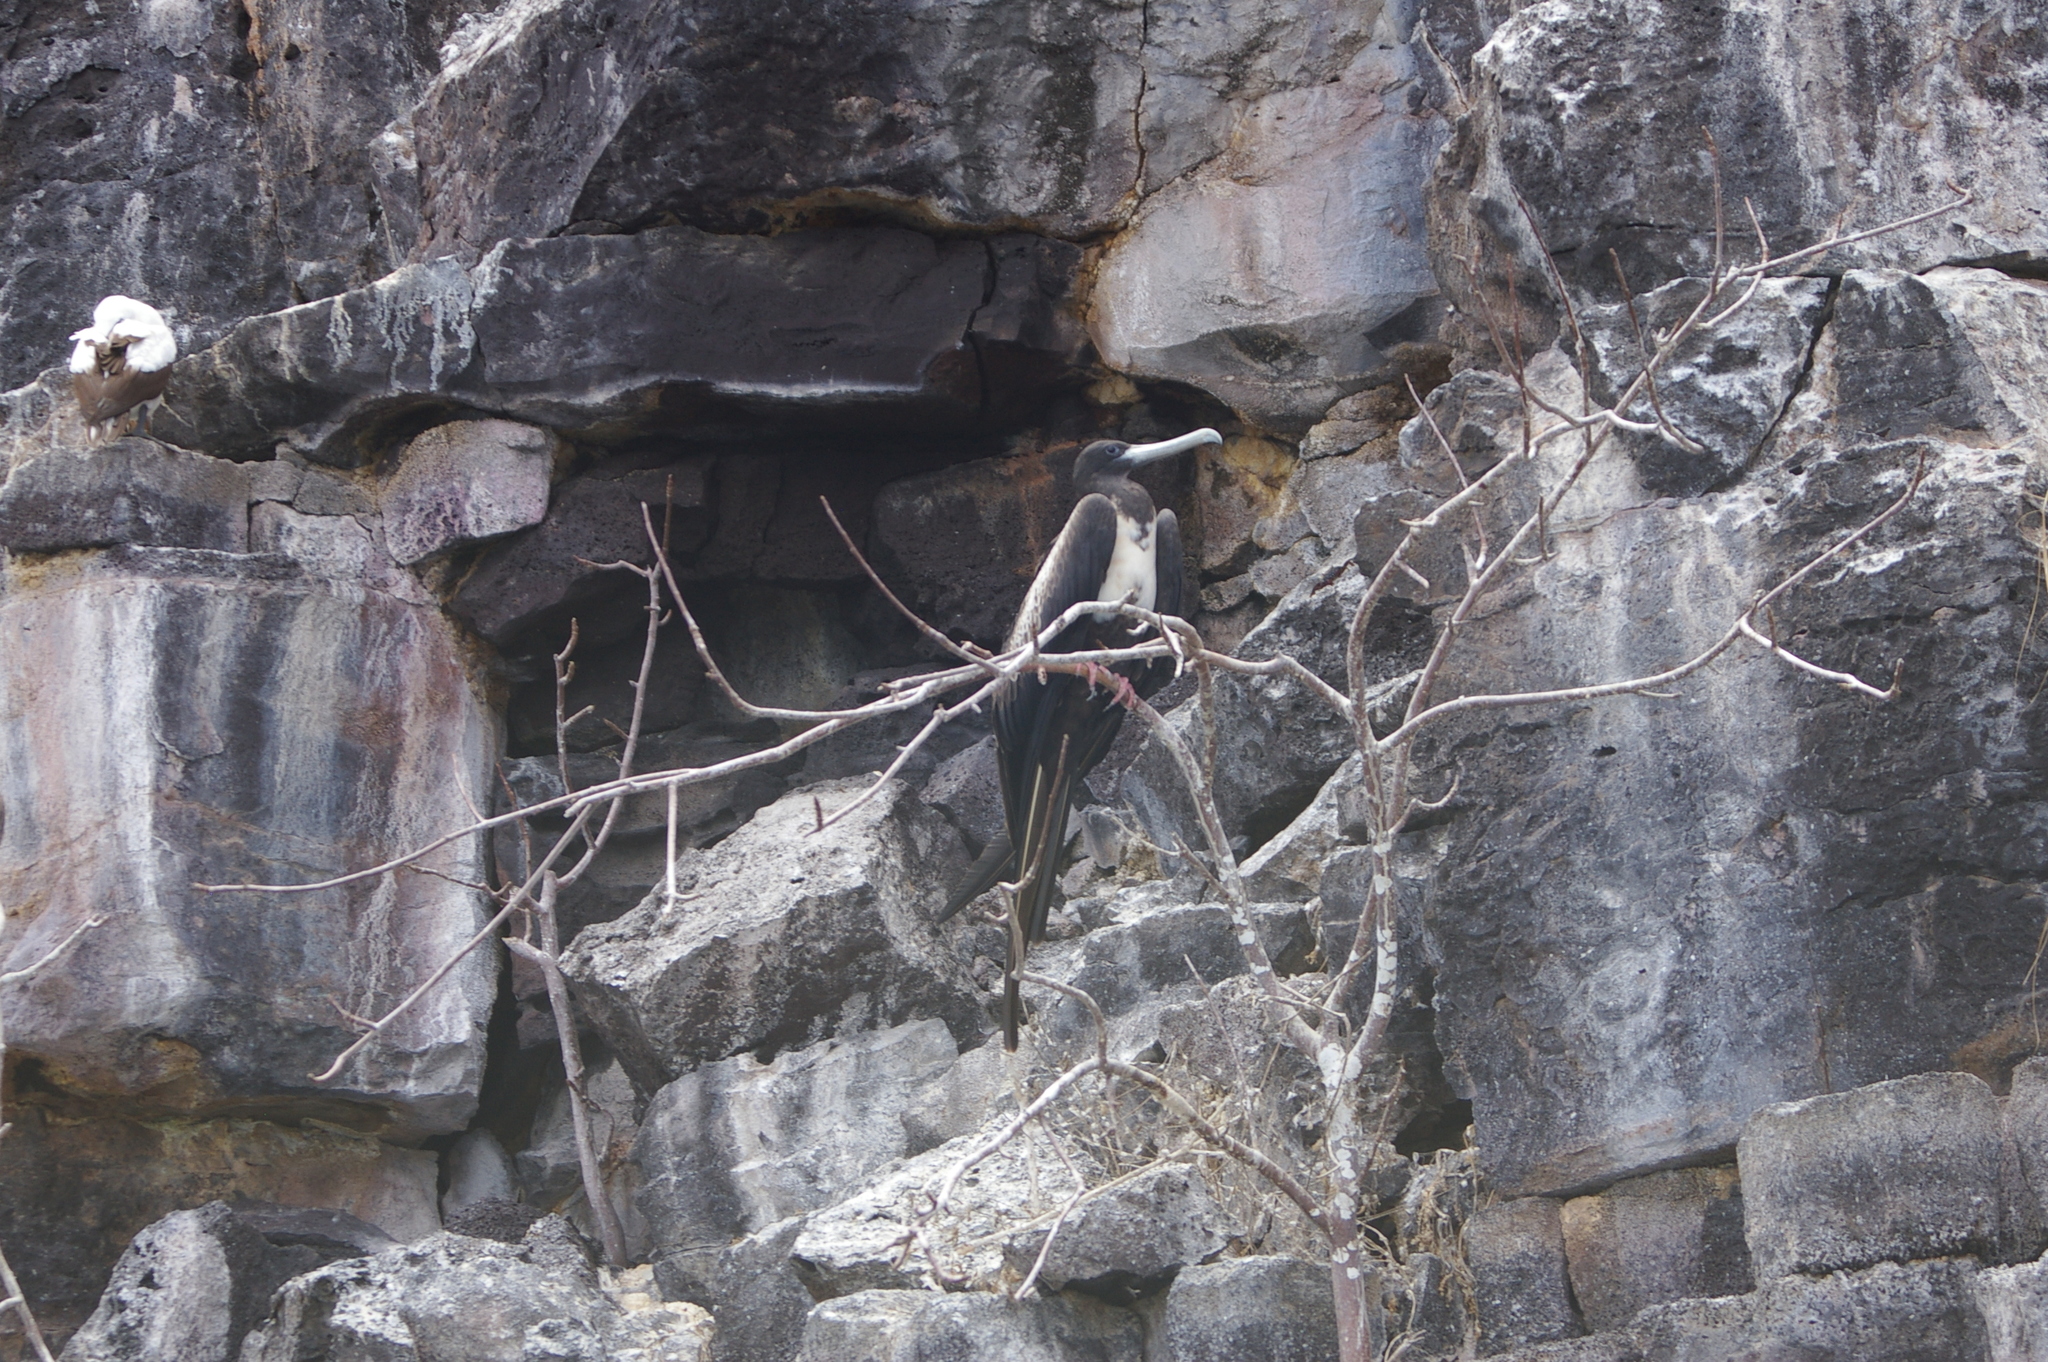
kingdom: Animalia
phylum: Chordata
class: Aves
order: Suliformes
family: Fregatidae
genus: Fregata
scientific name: Fregata magnificens
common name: Magnificent frigatebird
